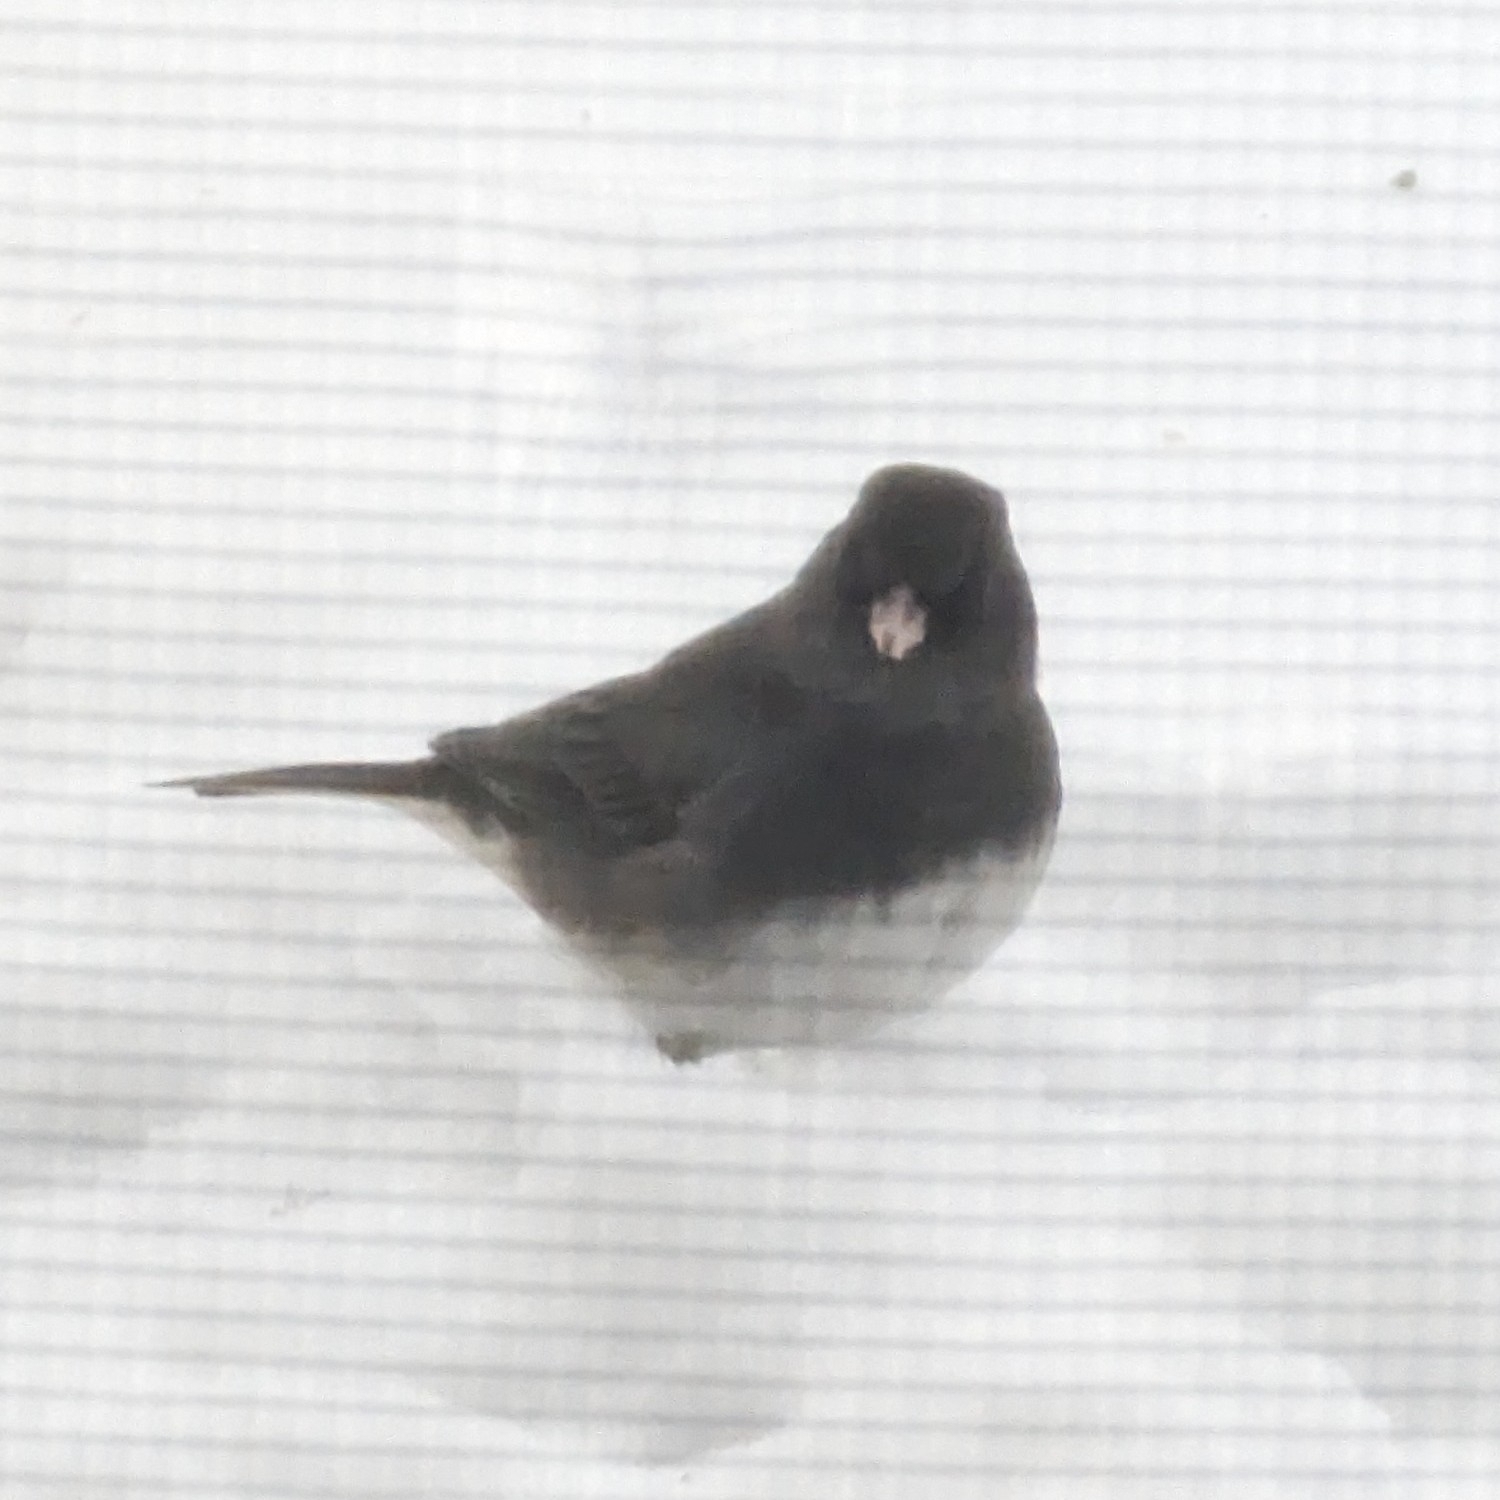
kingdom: Animalia
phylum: Chordata
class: Aves
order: Passeriformes
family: Passerellidae
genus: Junco
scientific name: Junco hyemalis
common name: Dark-eyed junco
